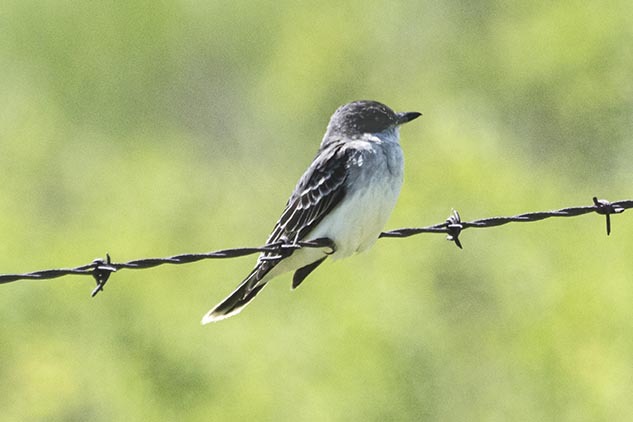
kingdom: Animalia
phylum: Chordata
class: Aves
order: Passeriformes
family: Tyrannidae
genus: Tyrannus
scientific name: Tyrannus tyrannus
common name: Eastern kingbird
